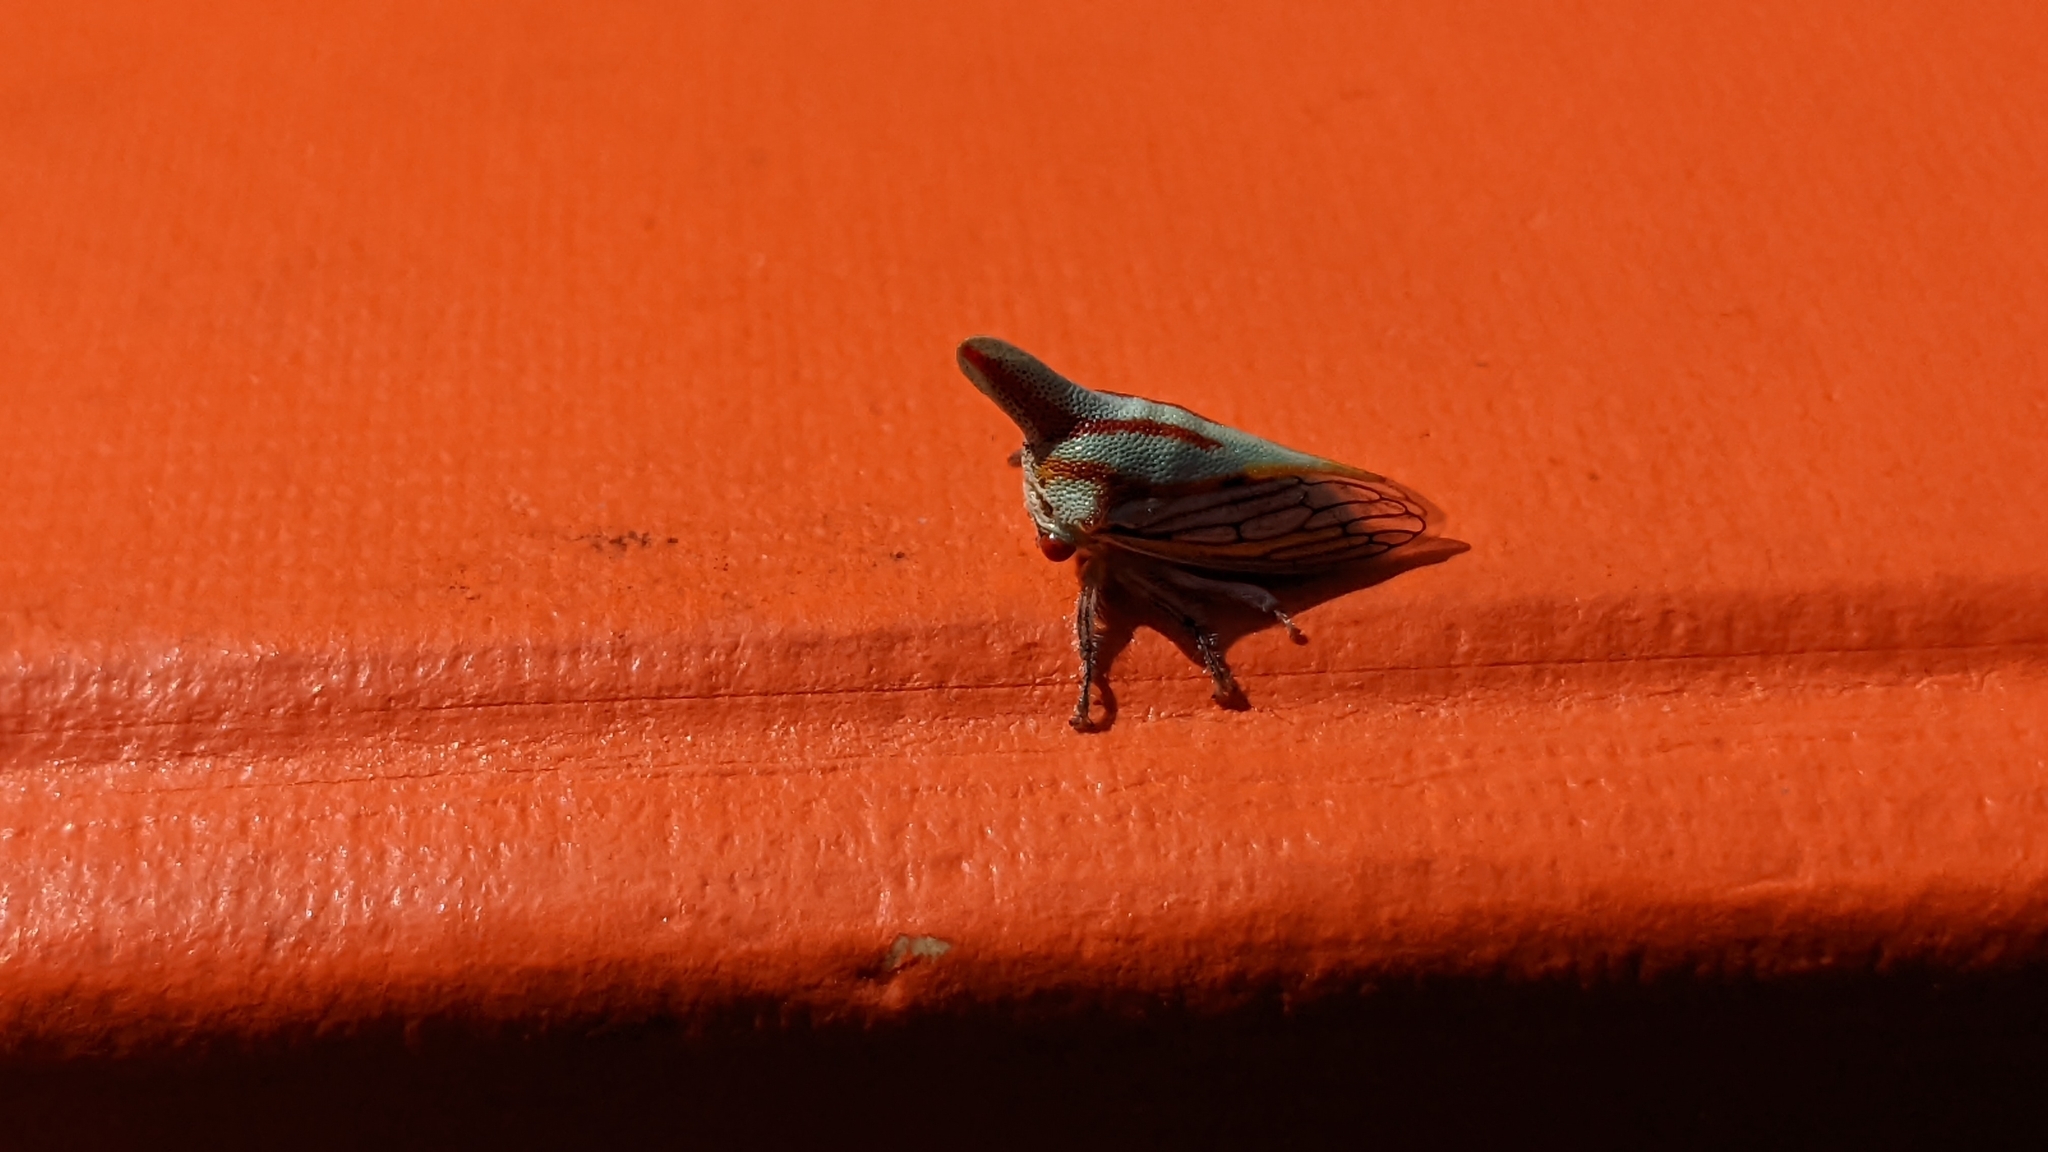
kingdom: Animalia
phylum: Arthropoda
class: Insecta
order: Hemiptera
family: Membracidae
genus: Platycotis
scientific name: Platycotis vittatus
